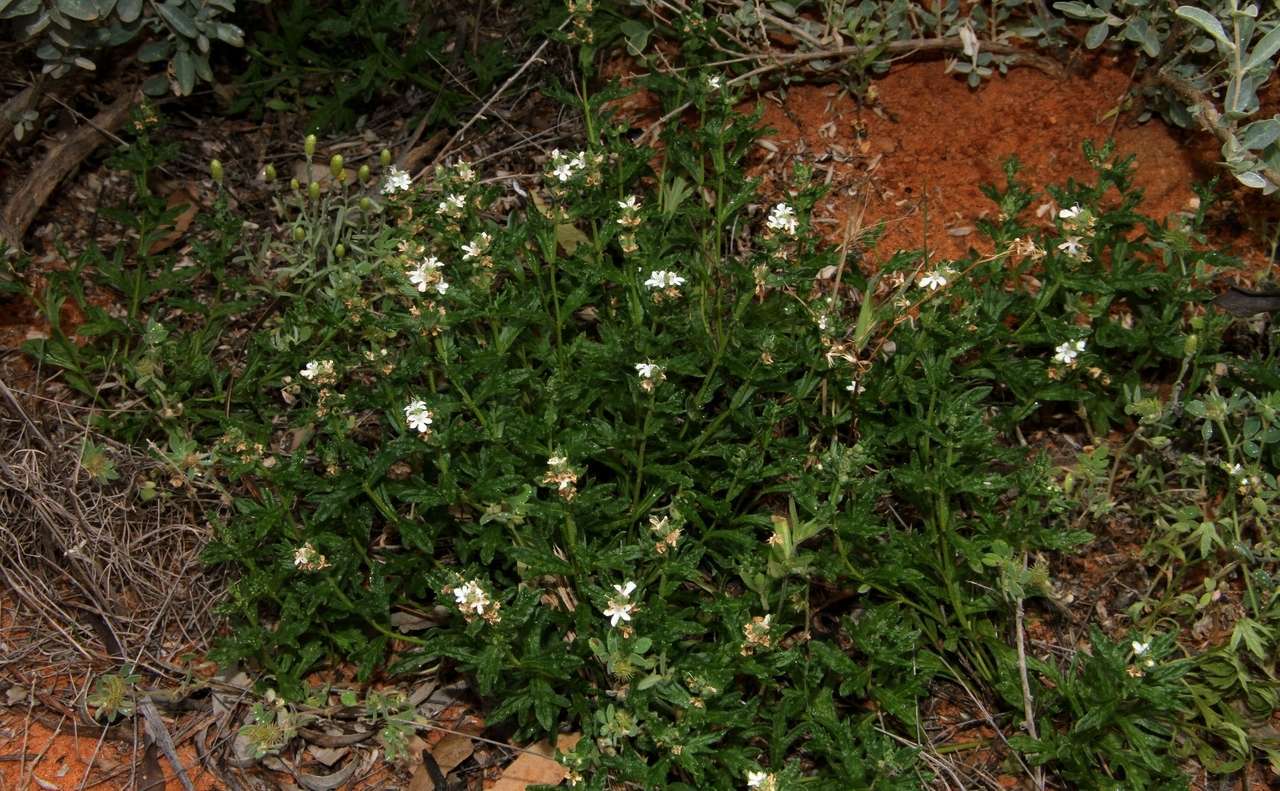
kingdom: Plantae
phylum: Tracheophyta
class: Magnoliopsida
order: Lamiales
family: Lamiaceae
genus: Teucrium
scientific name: Teucrium sessiliflorum
